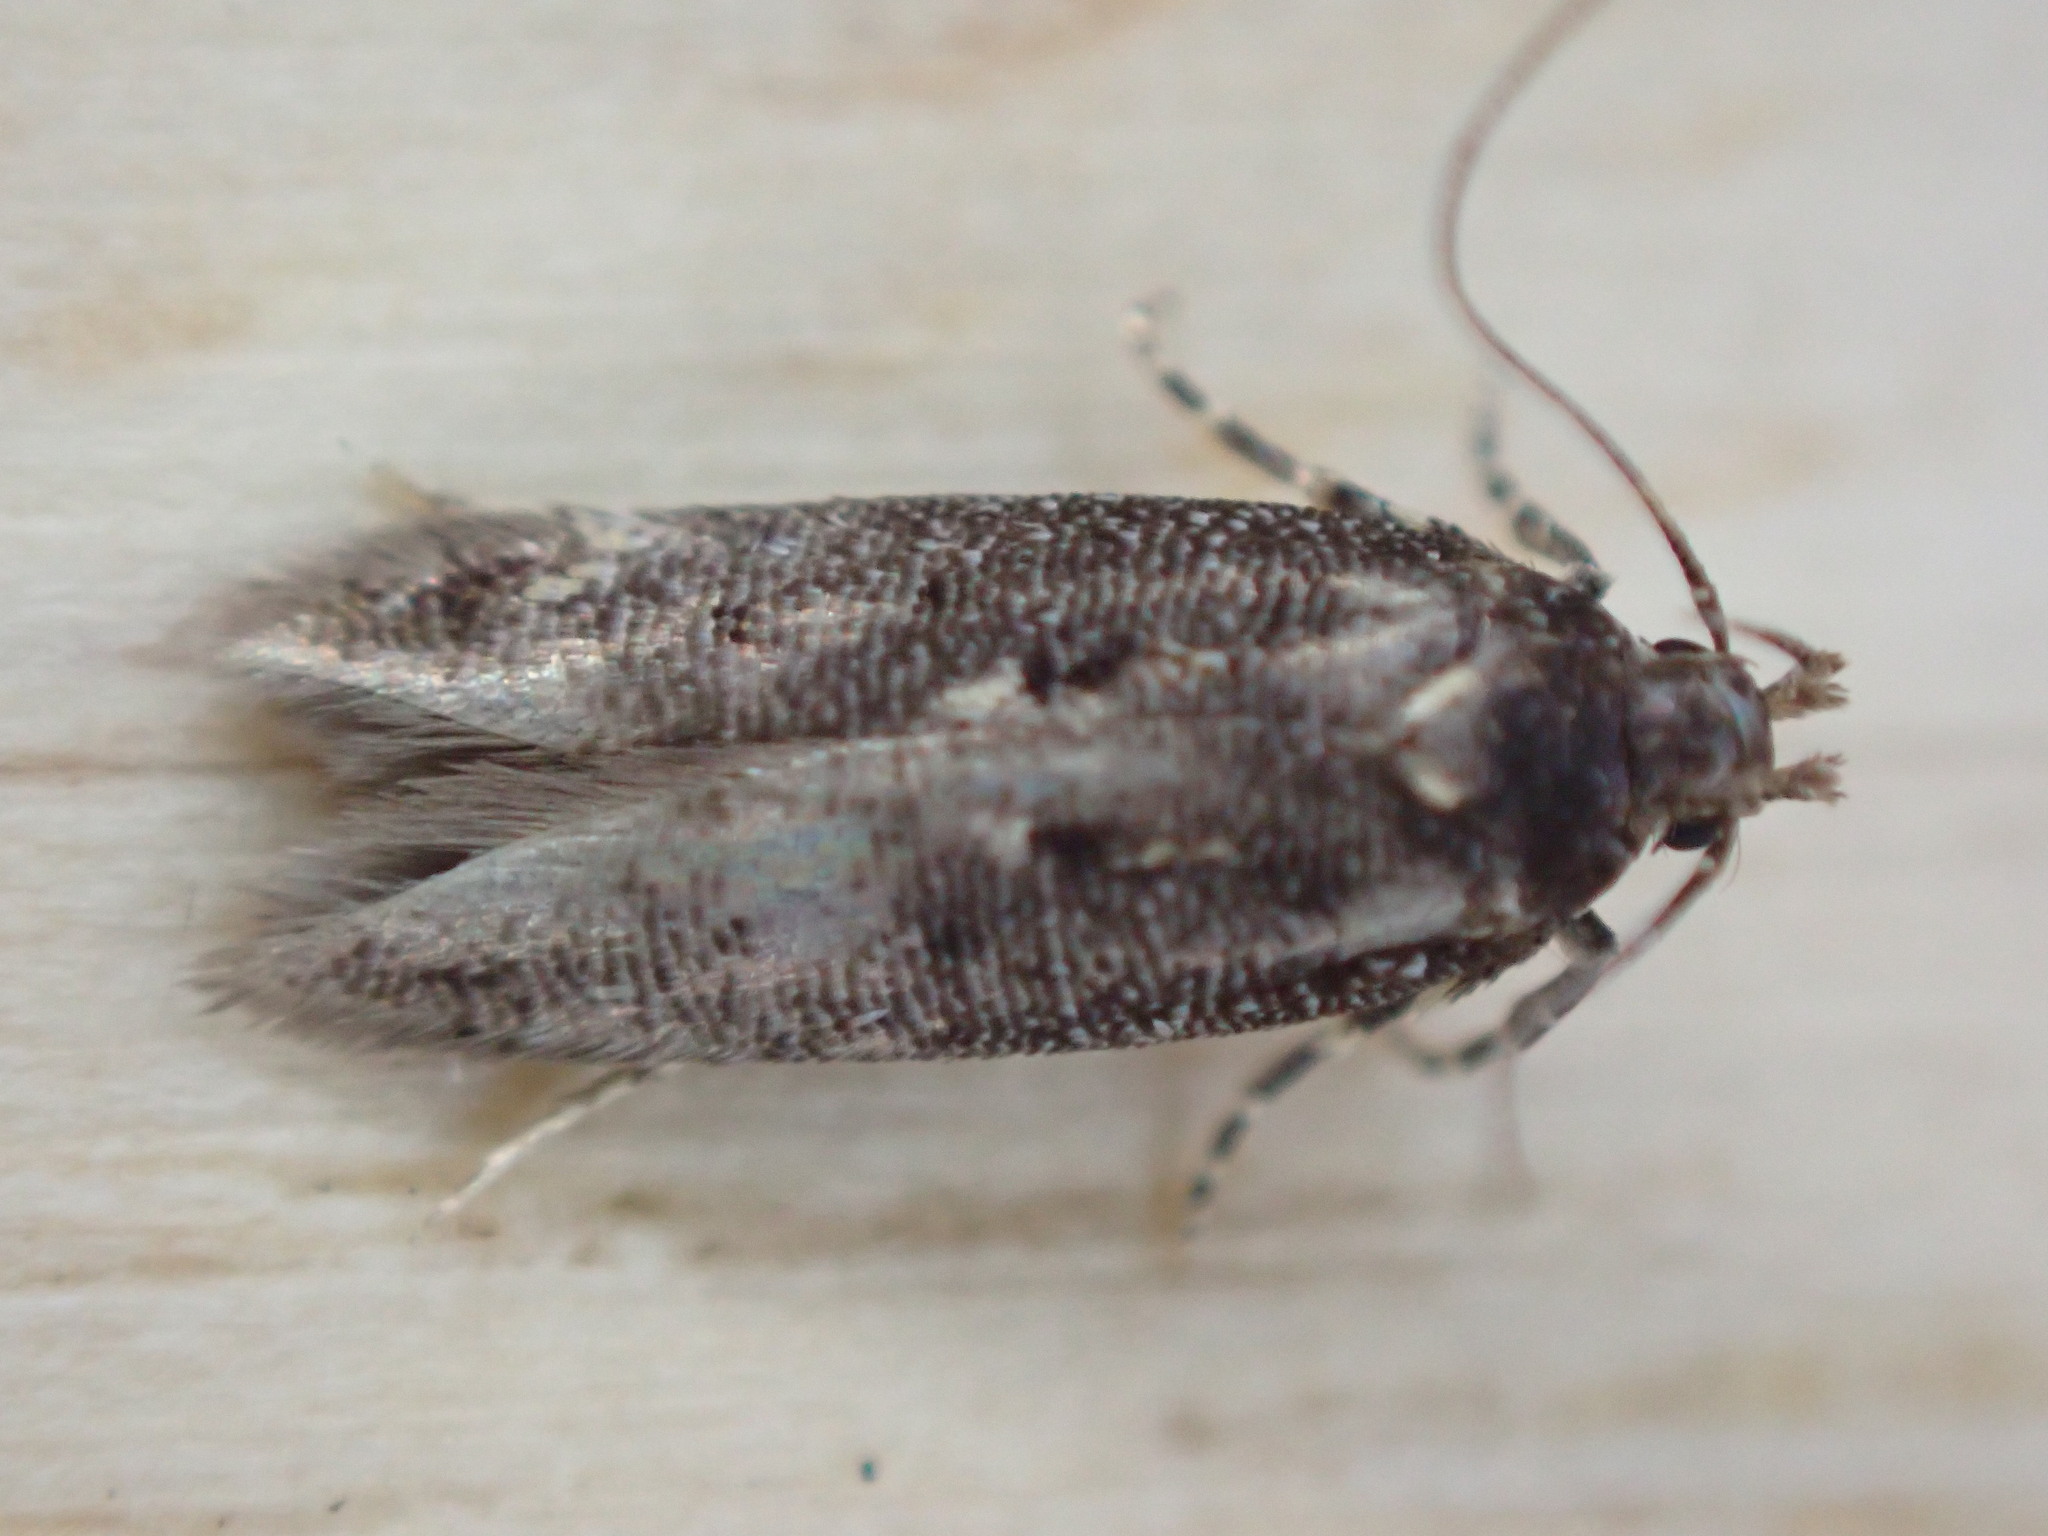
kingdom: Animalia
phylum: Arthropoda
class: Insecta
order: Lepidoptera
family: Gelechiidae
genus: Bryotropha
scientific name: Bryotropha affinis
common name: Dark groundling
